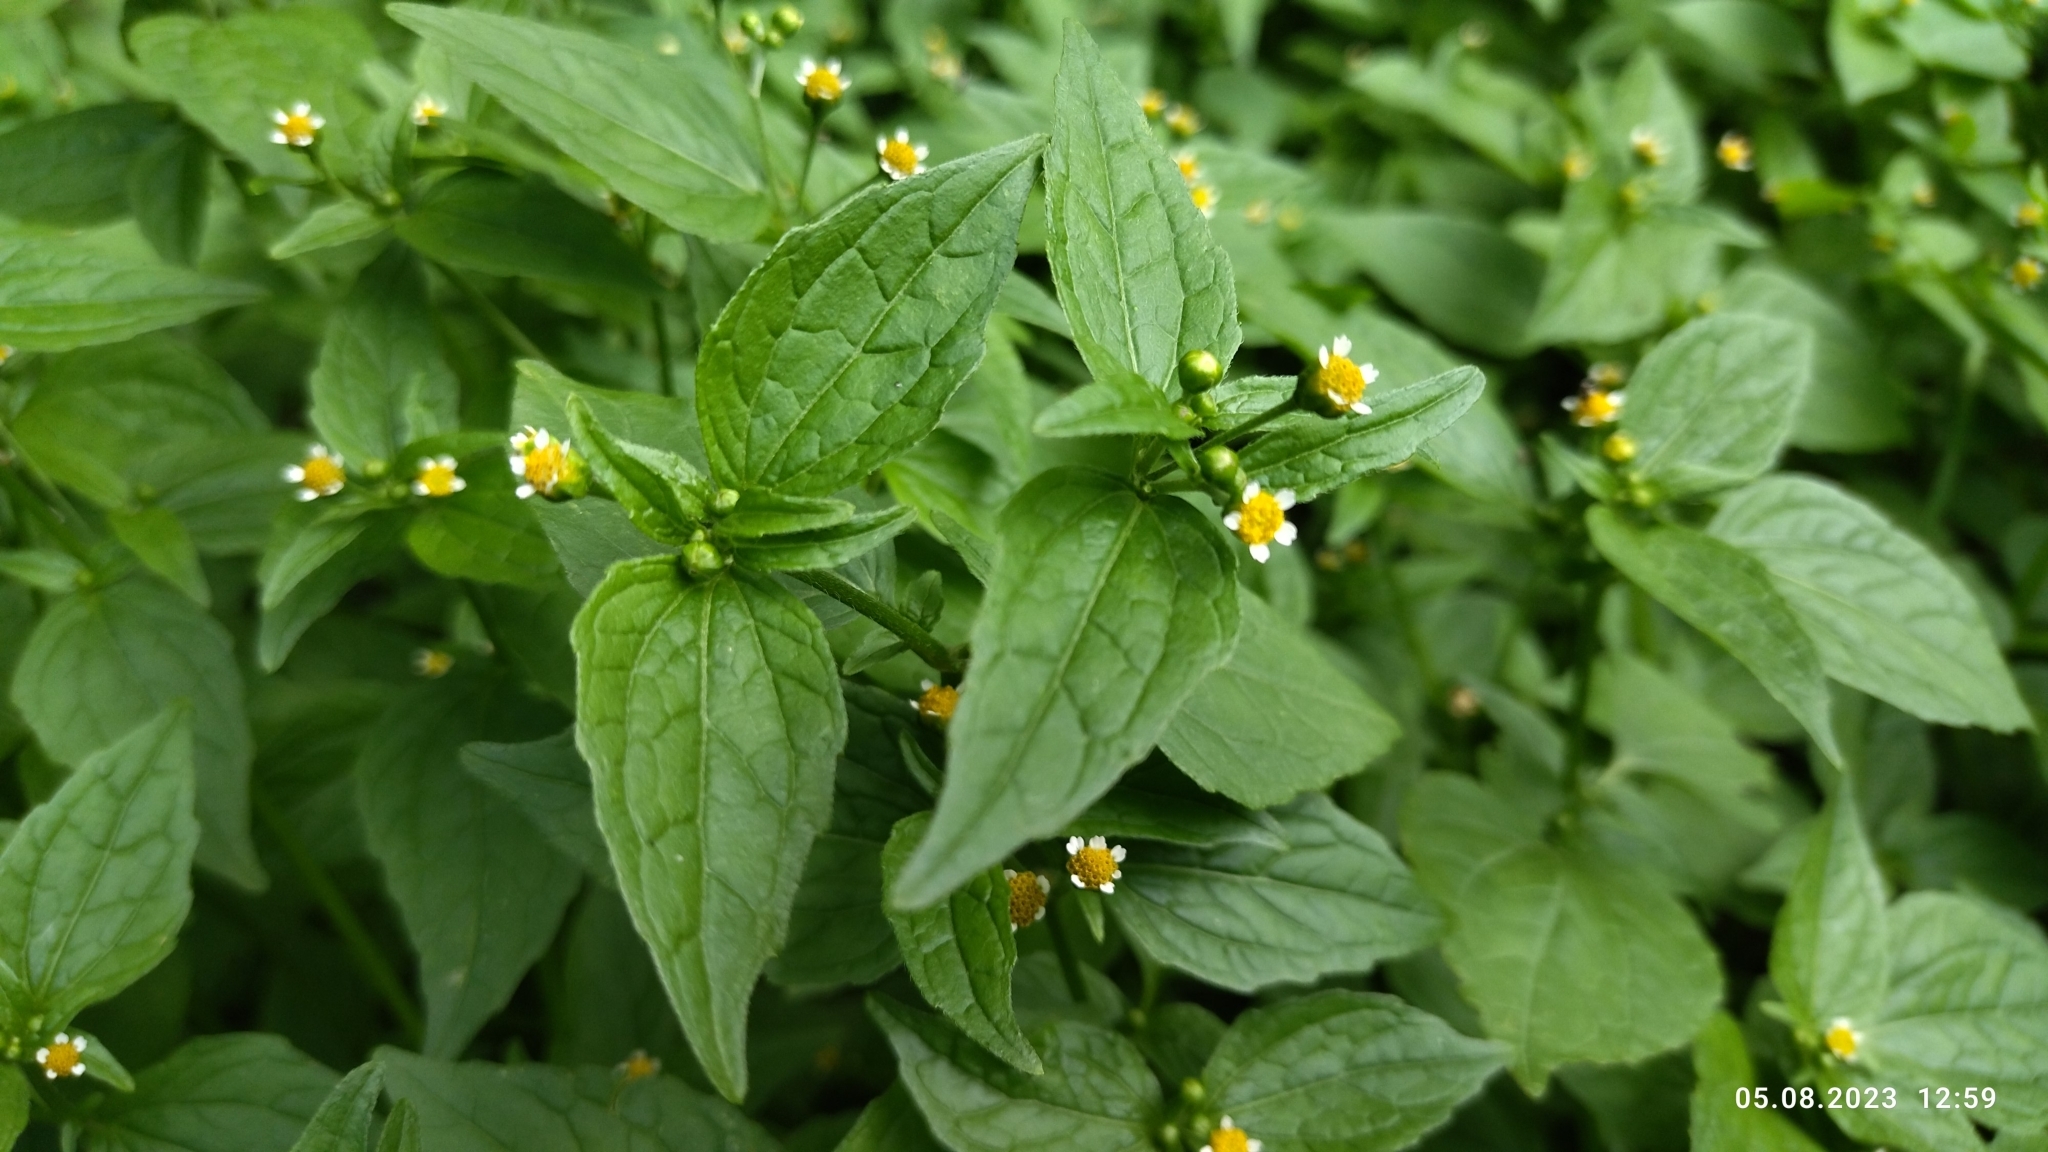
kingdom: Plantae
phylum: Tracheophyta
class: Magnoliopsida
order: Asterales
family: Asteraceae
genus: Galinsoga
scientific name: Galinsoga parviflora
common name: Gallant soldier
